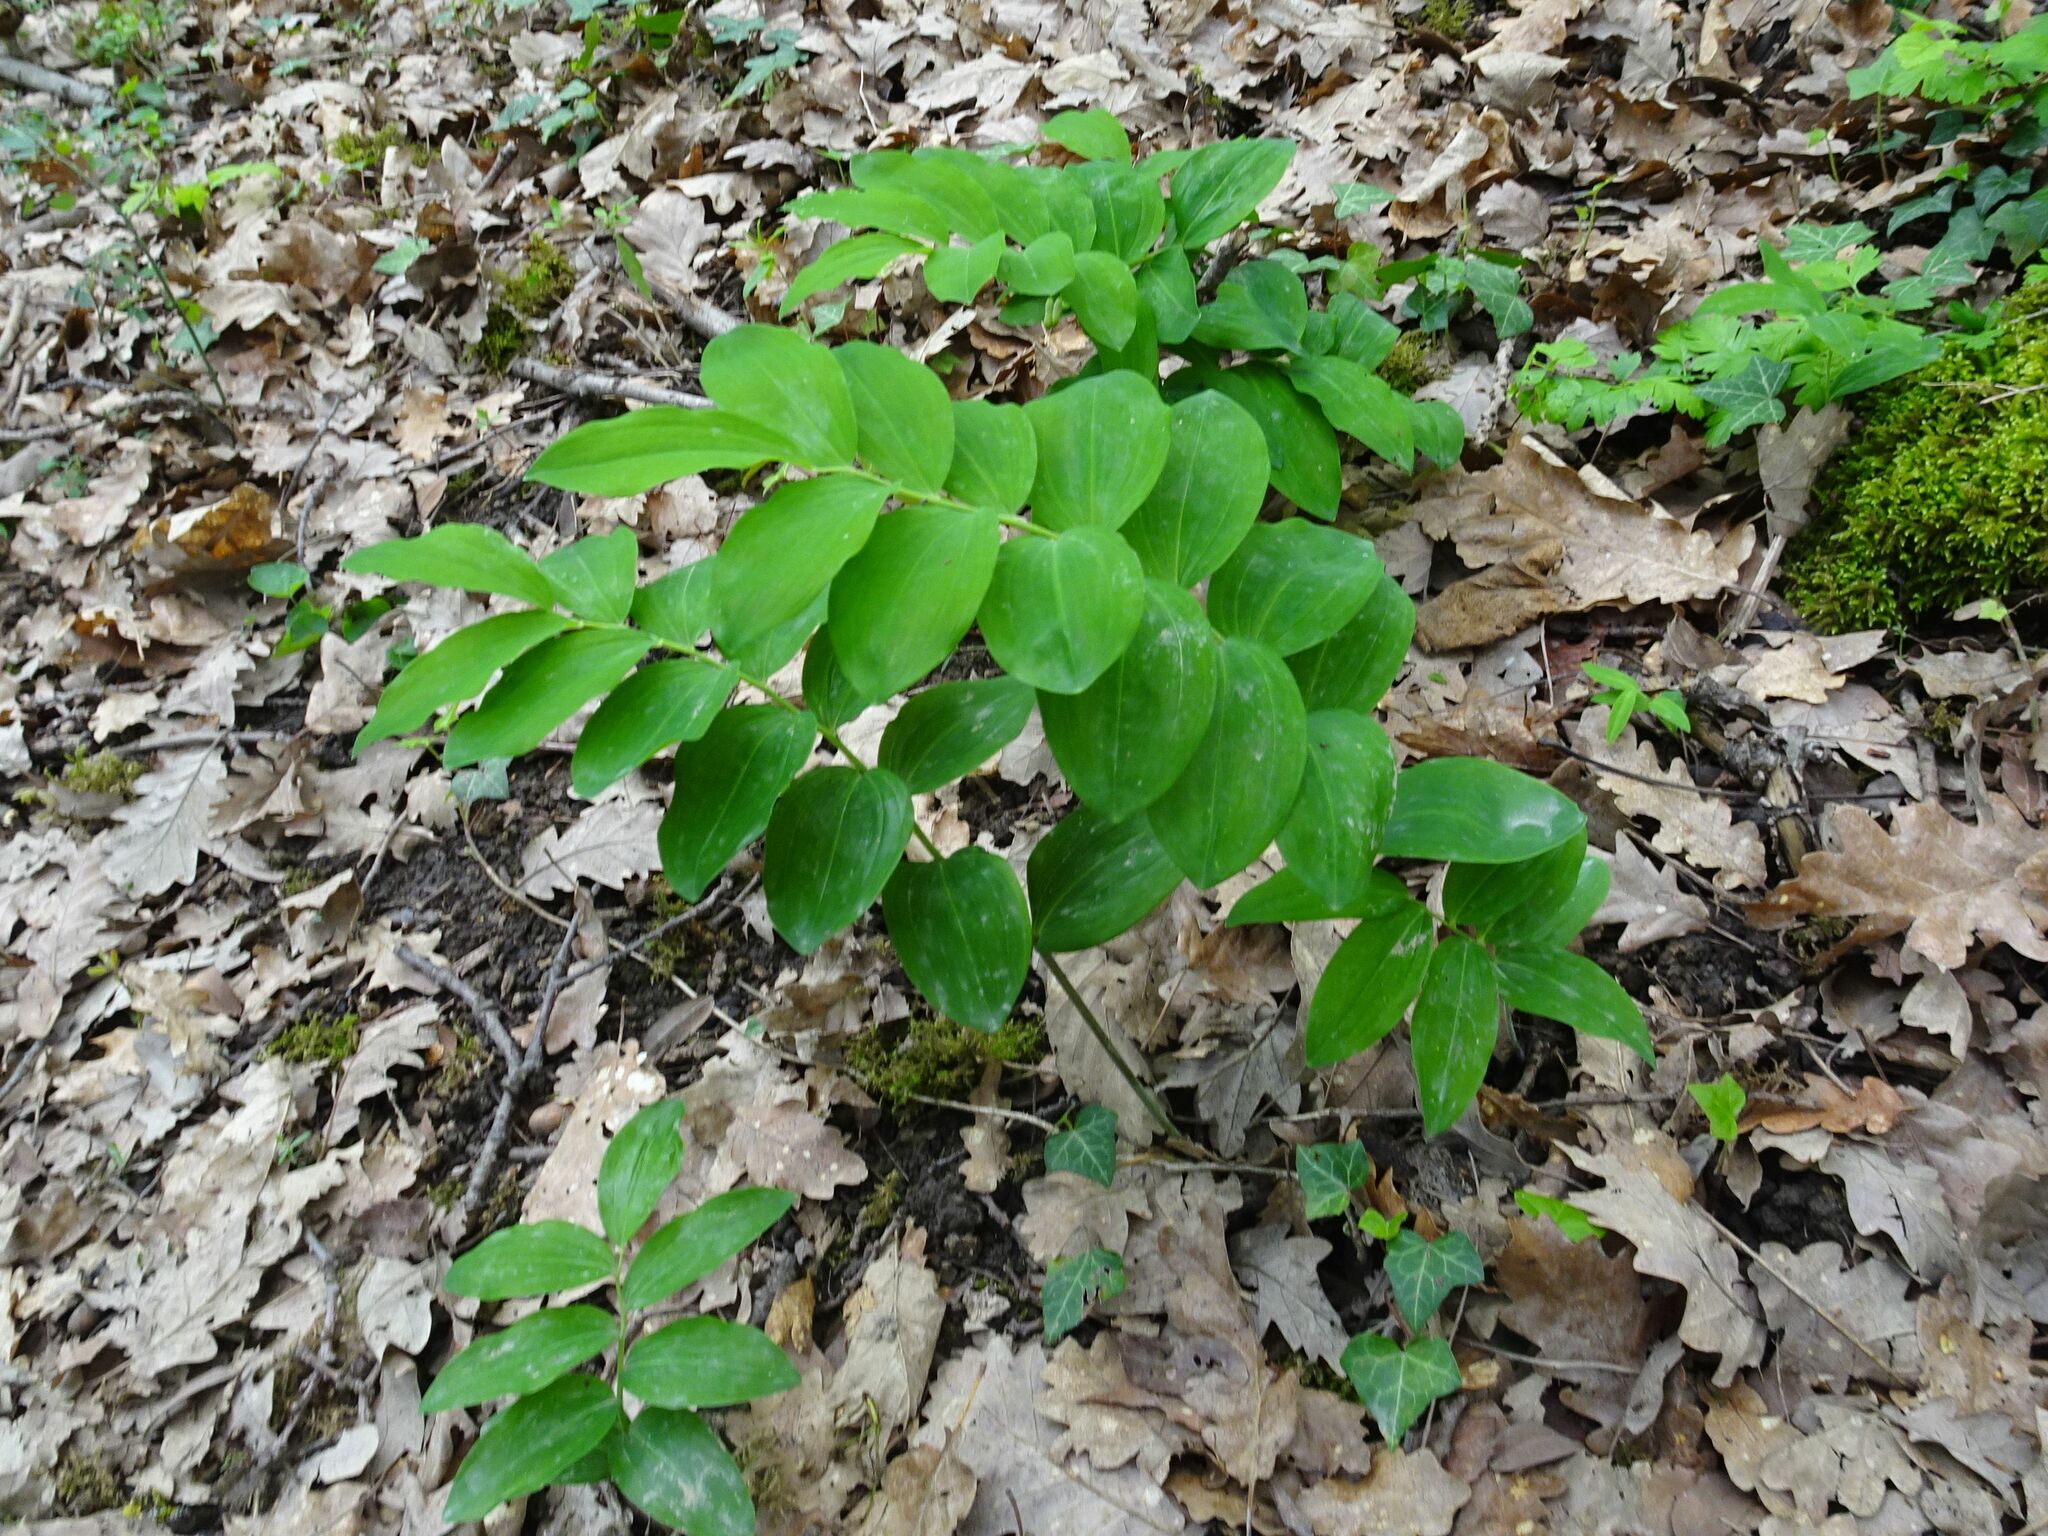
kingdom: Plantae
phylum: Tracheophyta
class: Liliopsida
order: Asparagales
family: Asparagaceae
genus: Polygonatum
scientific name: Polygonatum multiflorum
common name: Solomon's-seal
